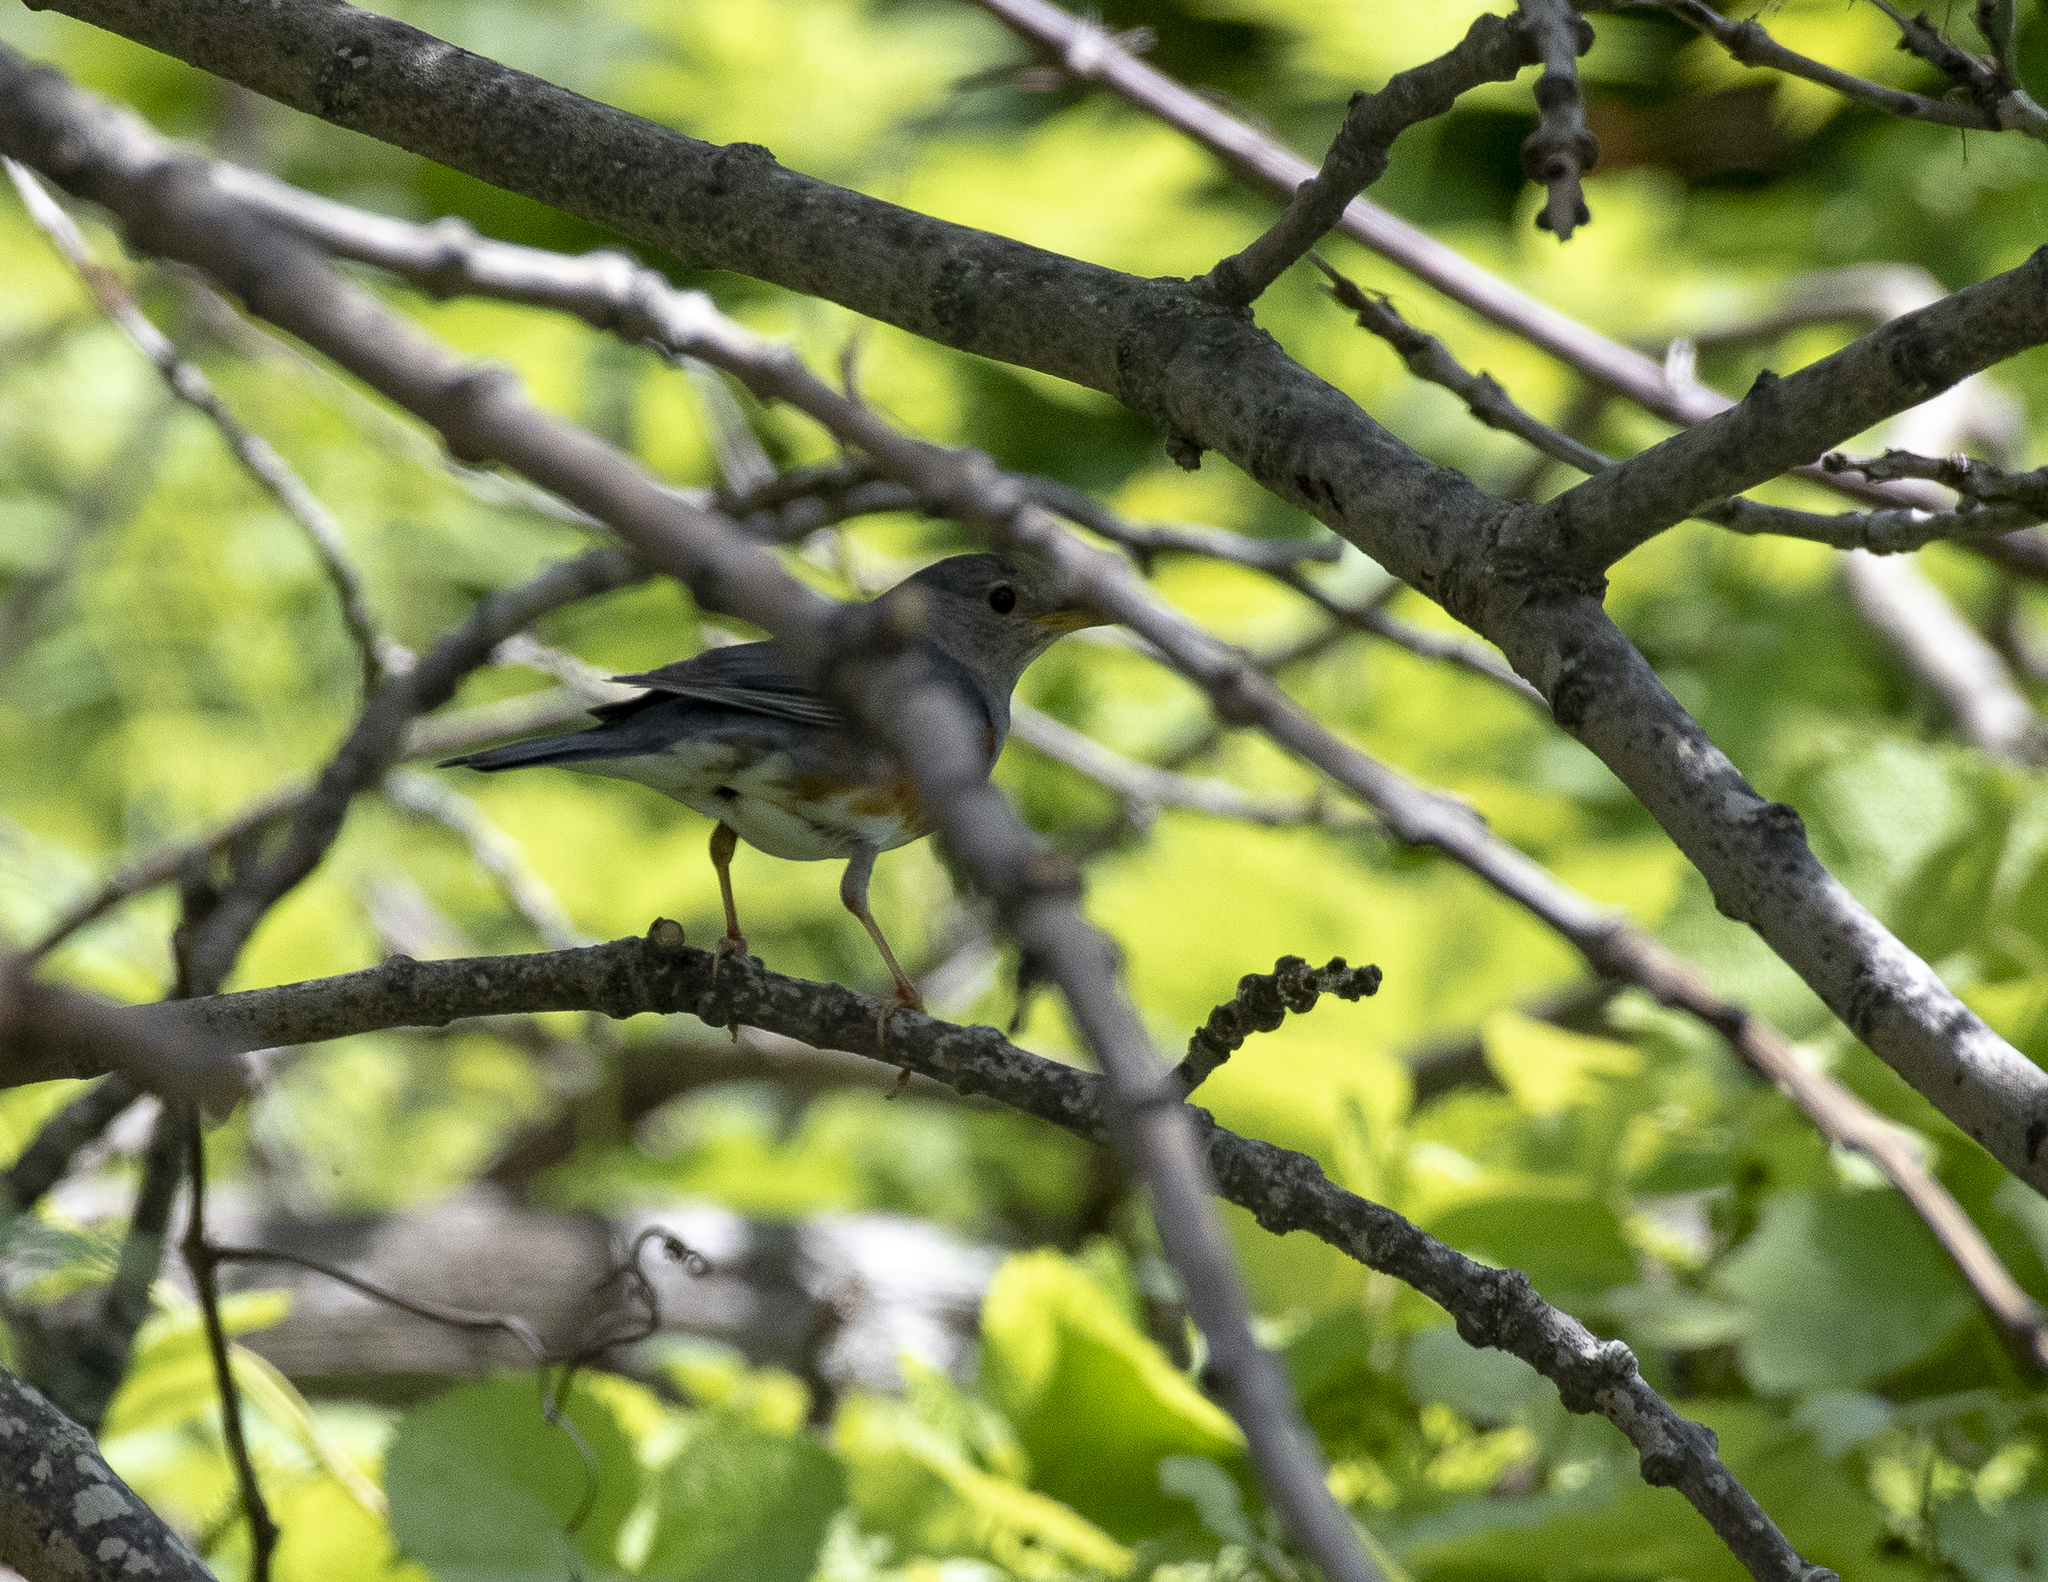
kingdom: Animalia
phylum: Chordata
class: Aves
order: Passeriformes
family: Turdidae
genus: Turdus
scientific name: Turdus hortulorum
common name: Grey-backed thrush
